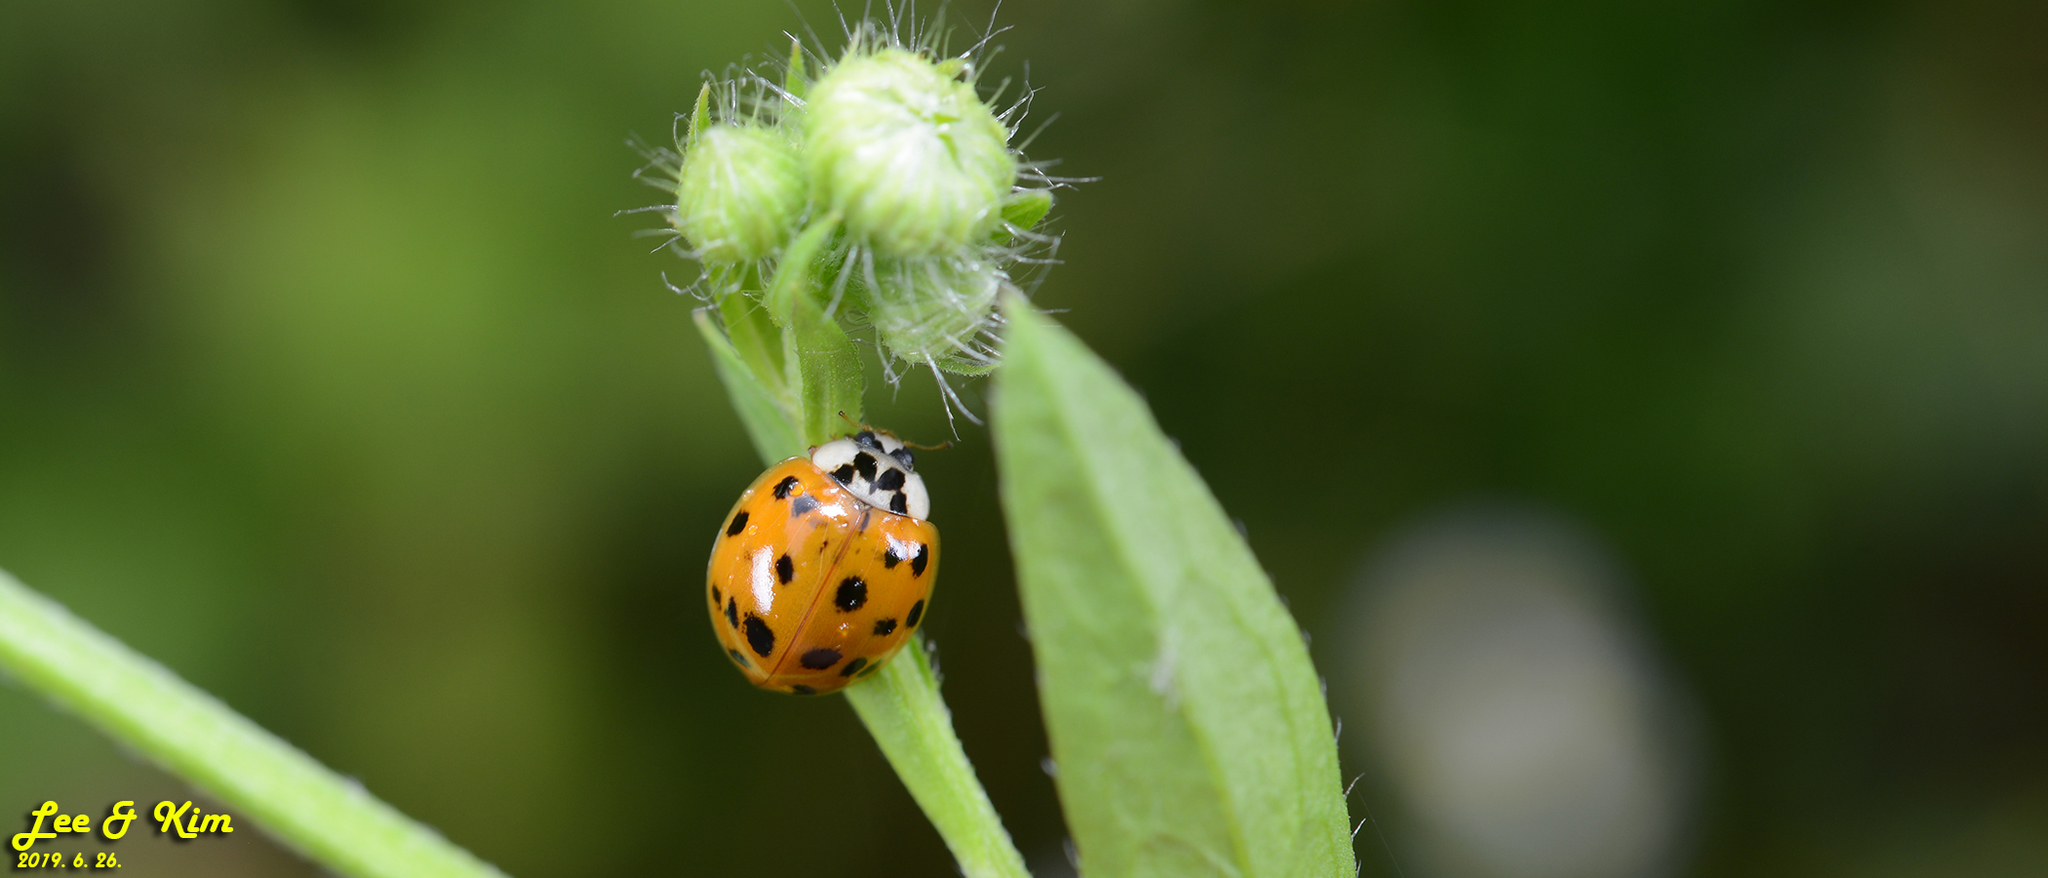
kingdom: Animalia
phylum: Arthropoda
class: Insecta
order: Coleoptera
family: Coccinellidae
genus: Harmonia
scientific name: Harmonia axyridis
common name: Harlequin ladybird
